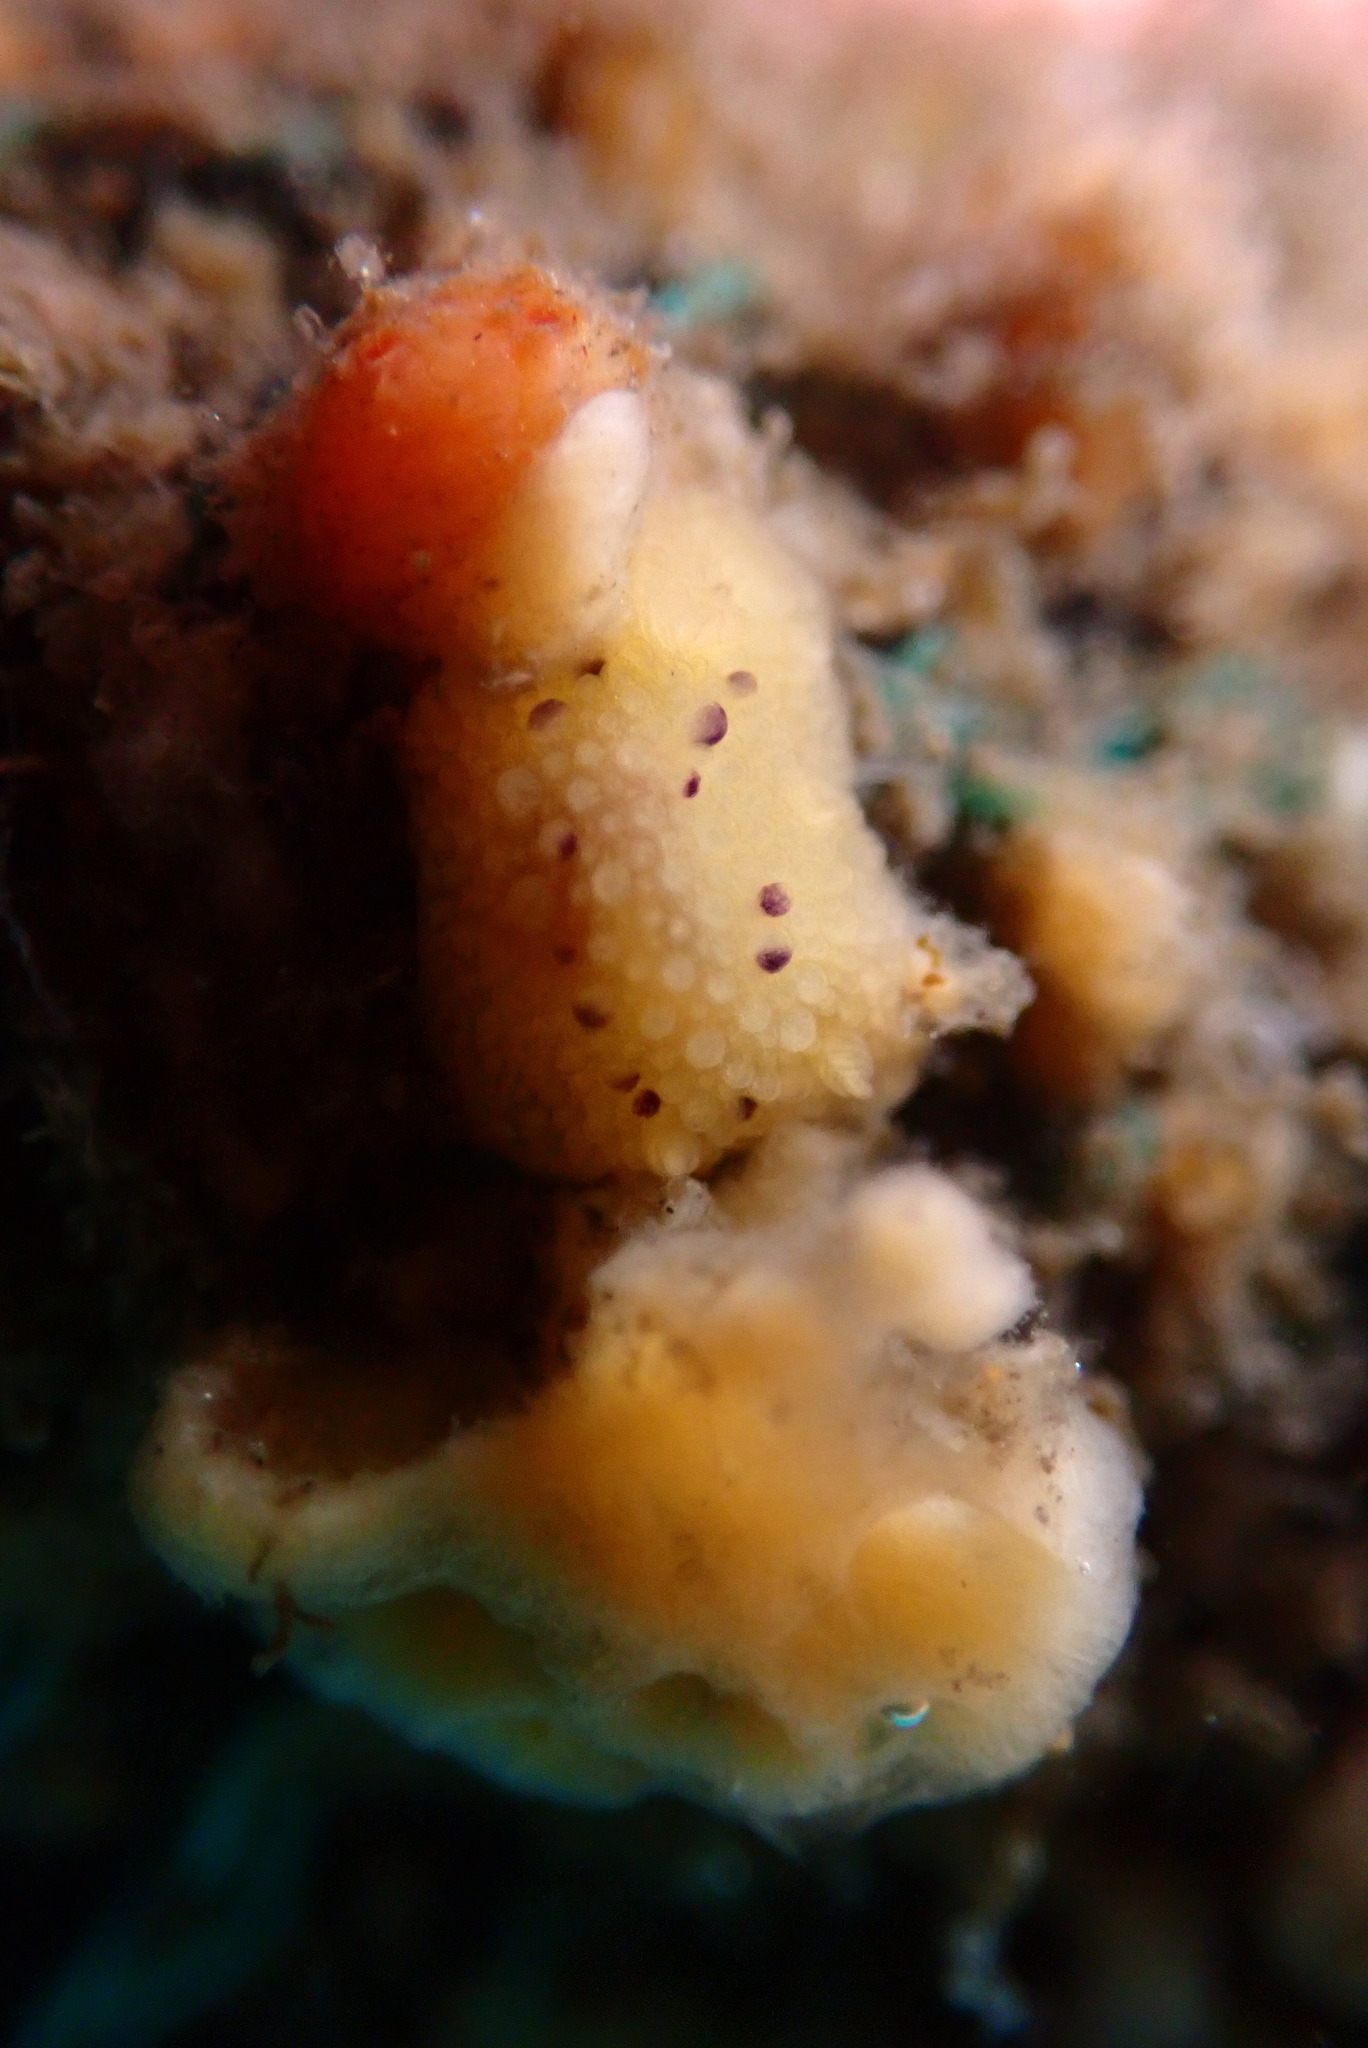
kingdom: Animalia
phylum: Mollusca
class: Gastropoda
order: Nudibranchia
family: Dorididae
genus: Doris
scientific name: Doris montereyensis
